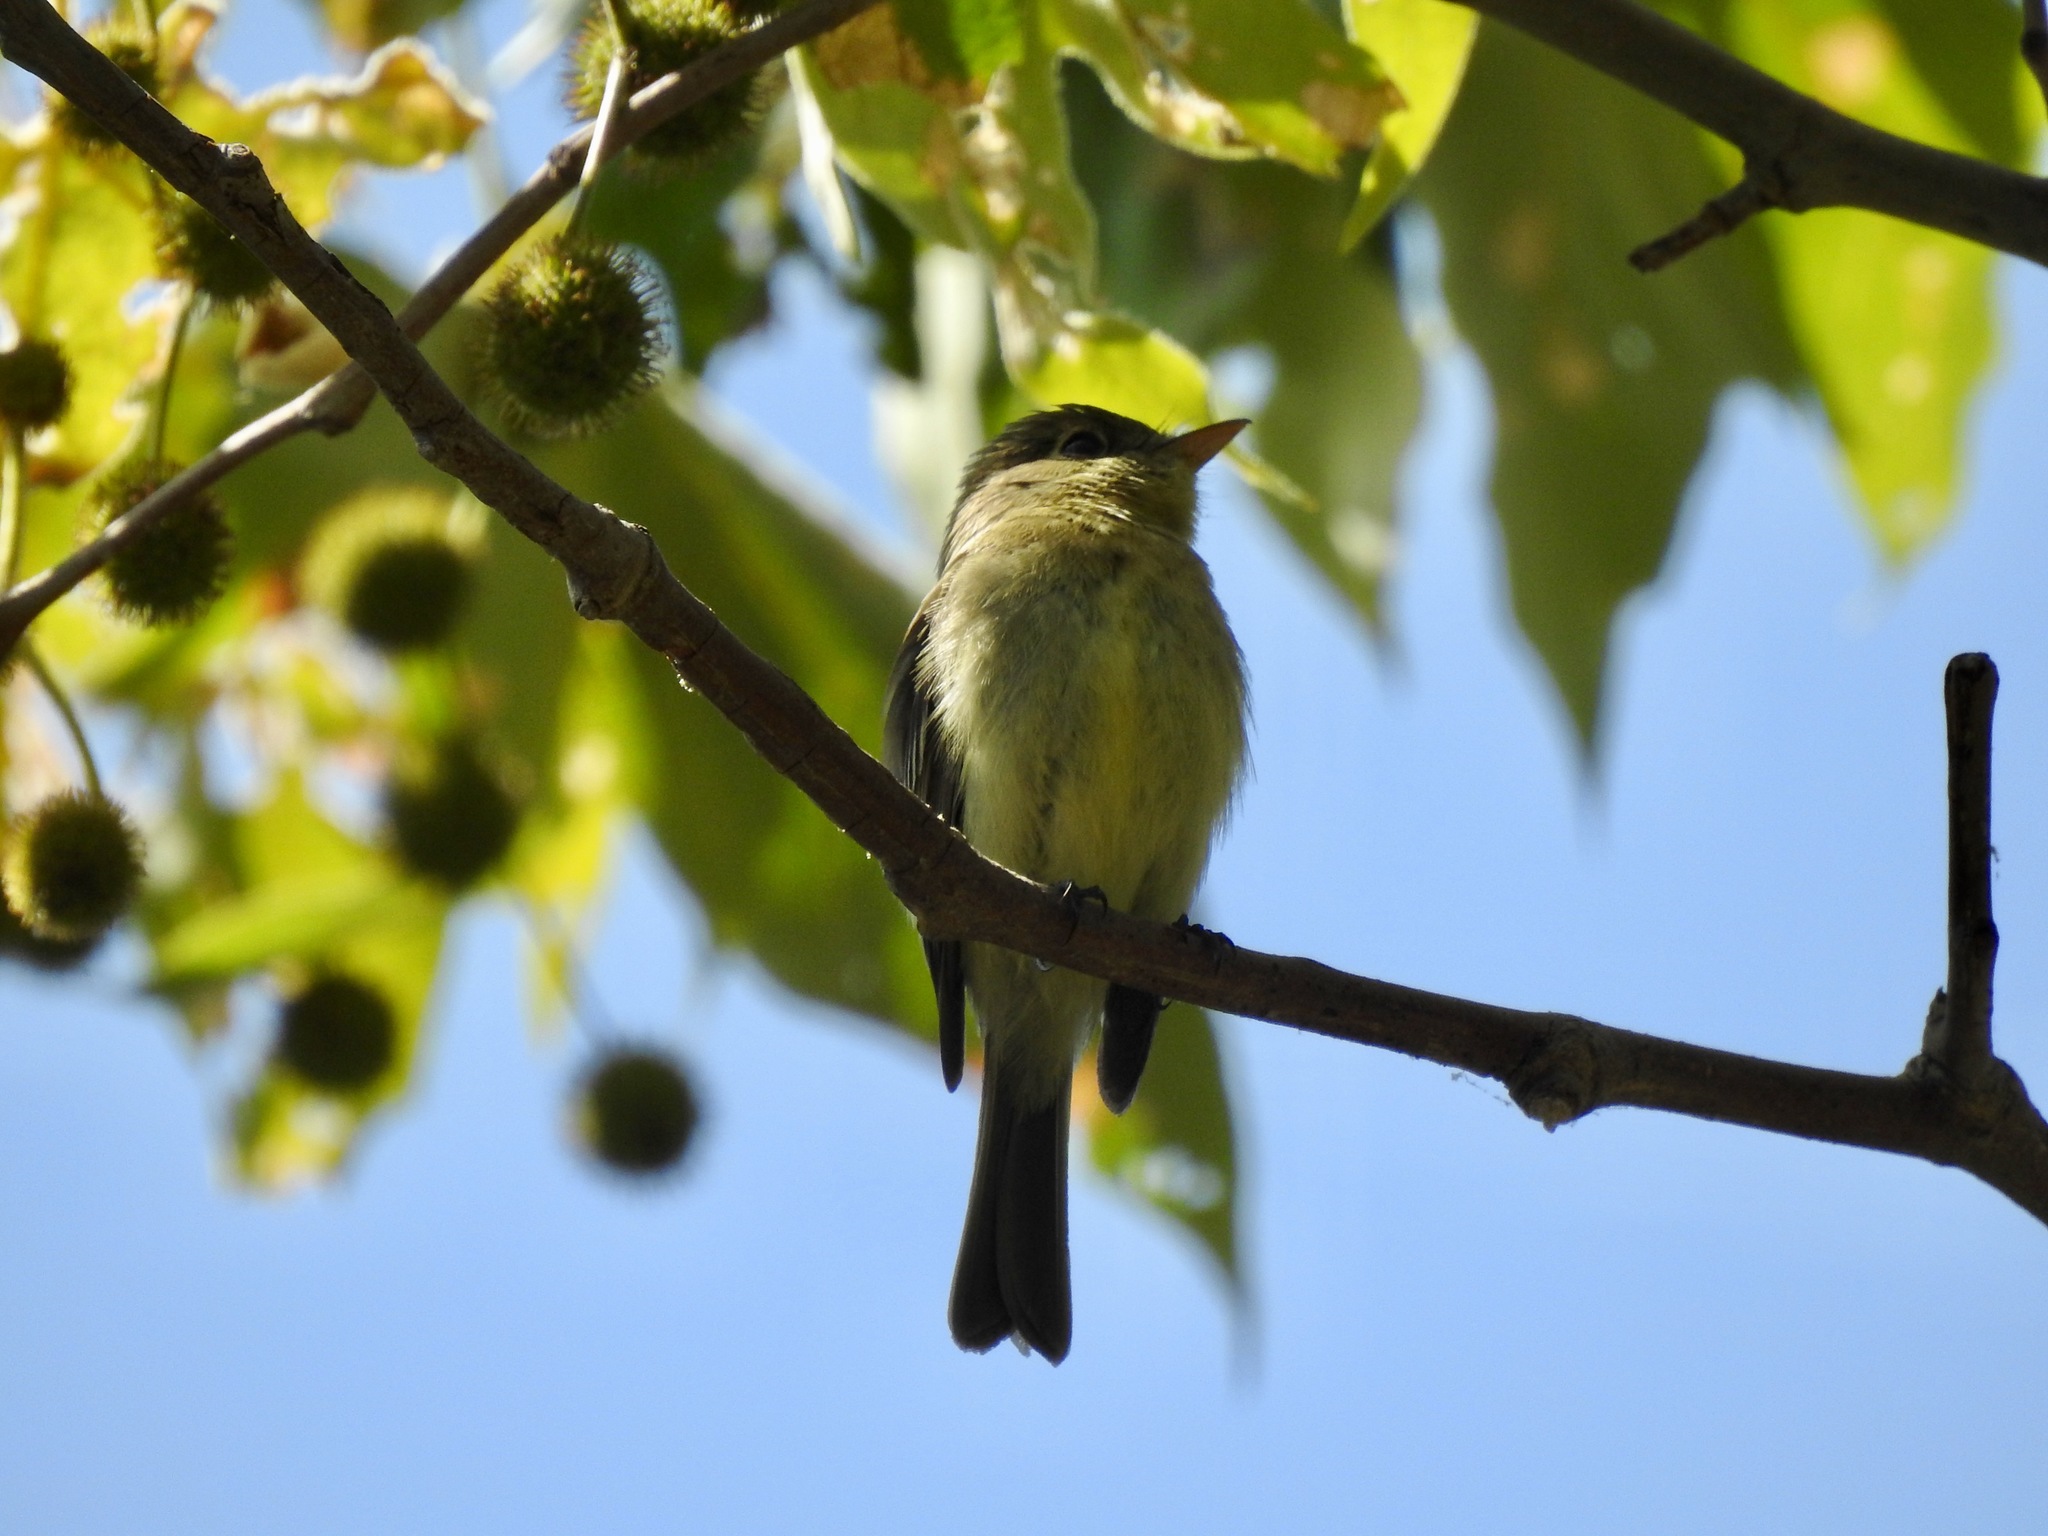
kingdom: Animalia
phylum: Chordata
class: Aves
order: Passeriformes
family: Tyrannidae
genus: Empidonax
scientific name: Empidonax difficilis
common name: Pacific-slope flycatcher
